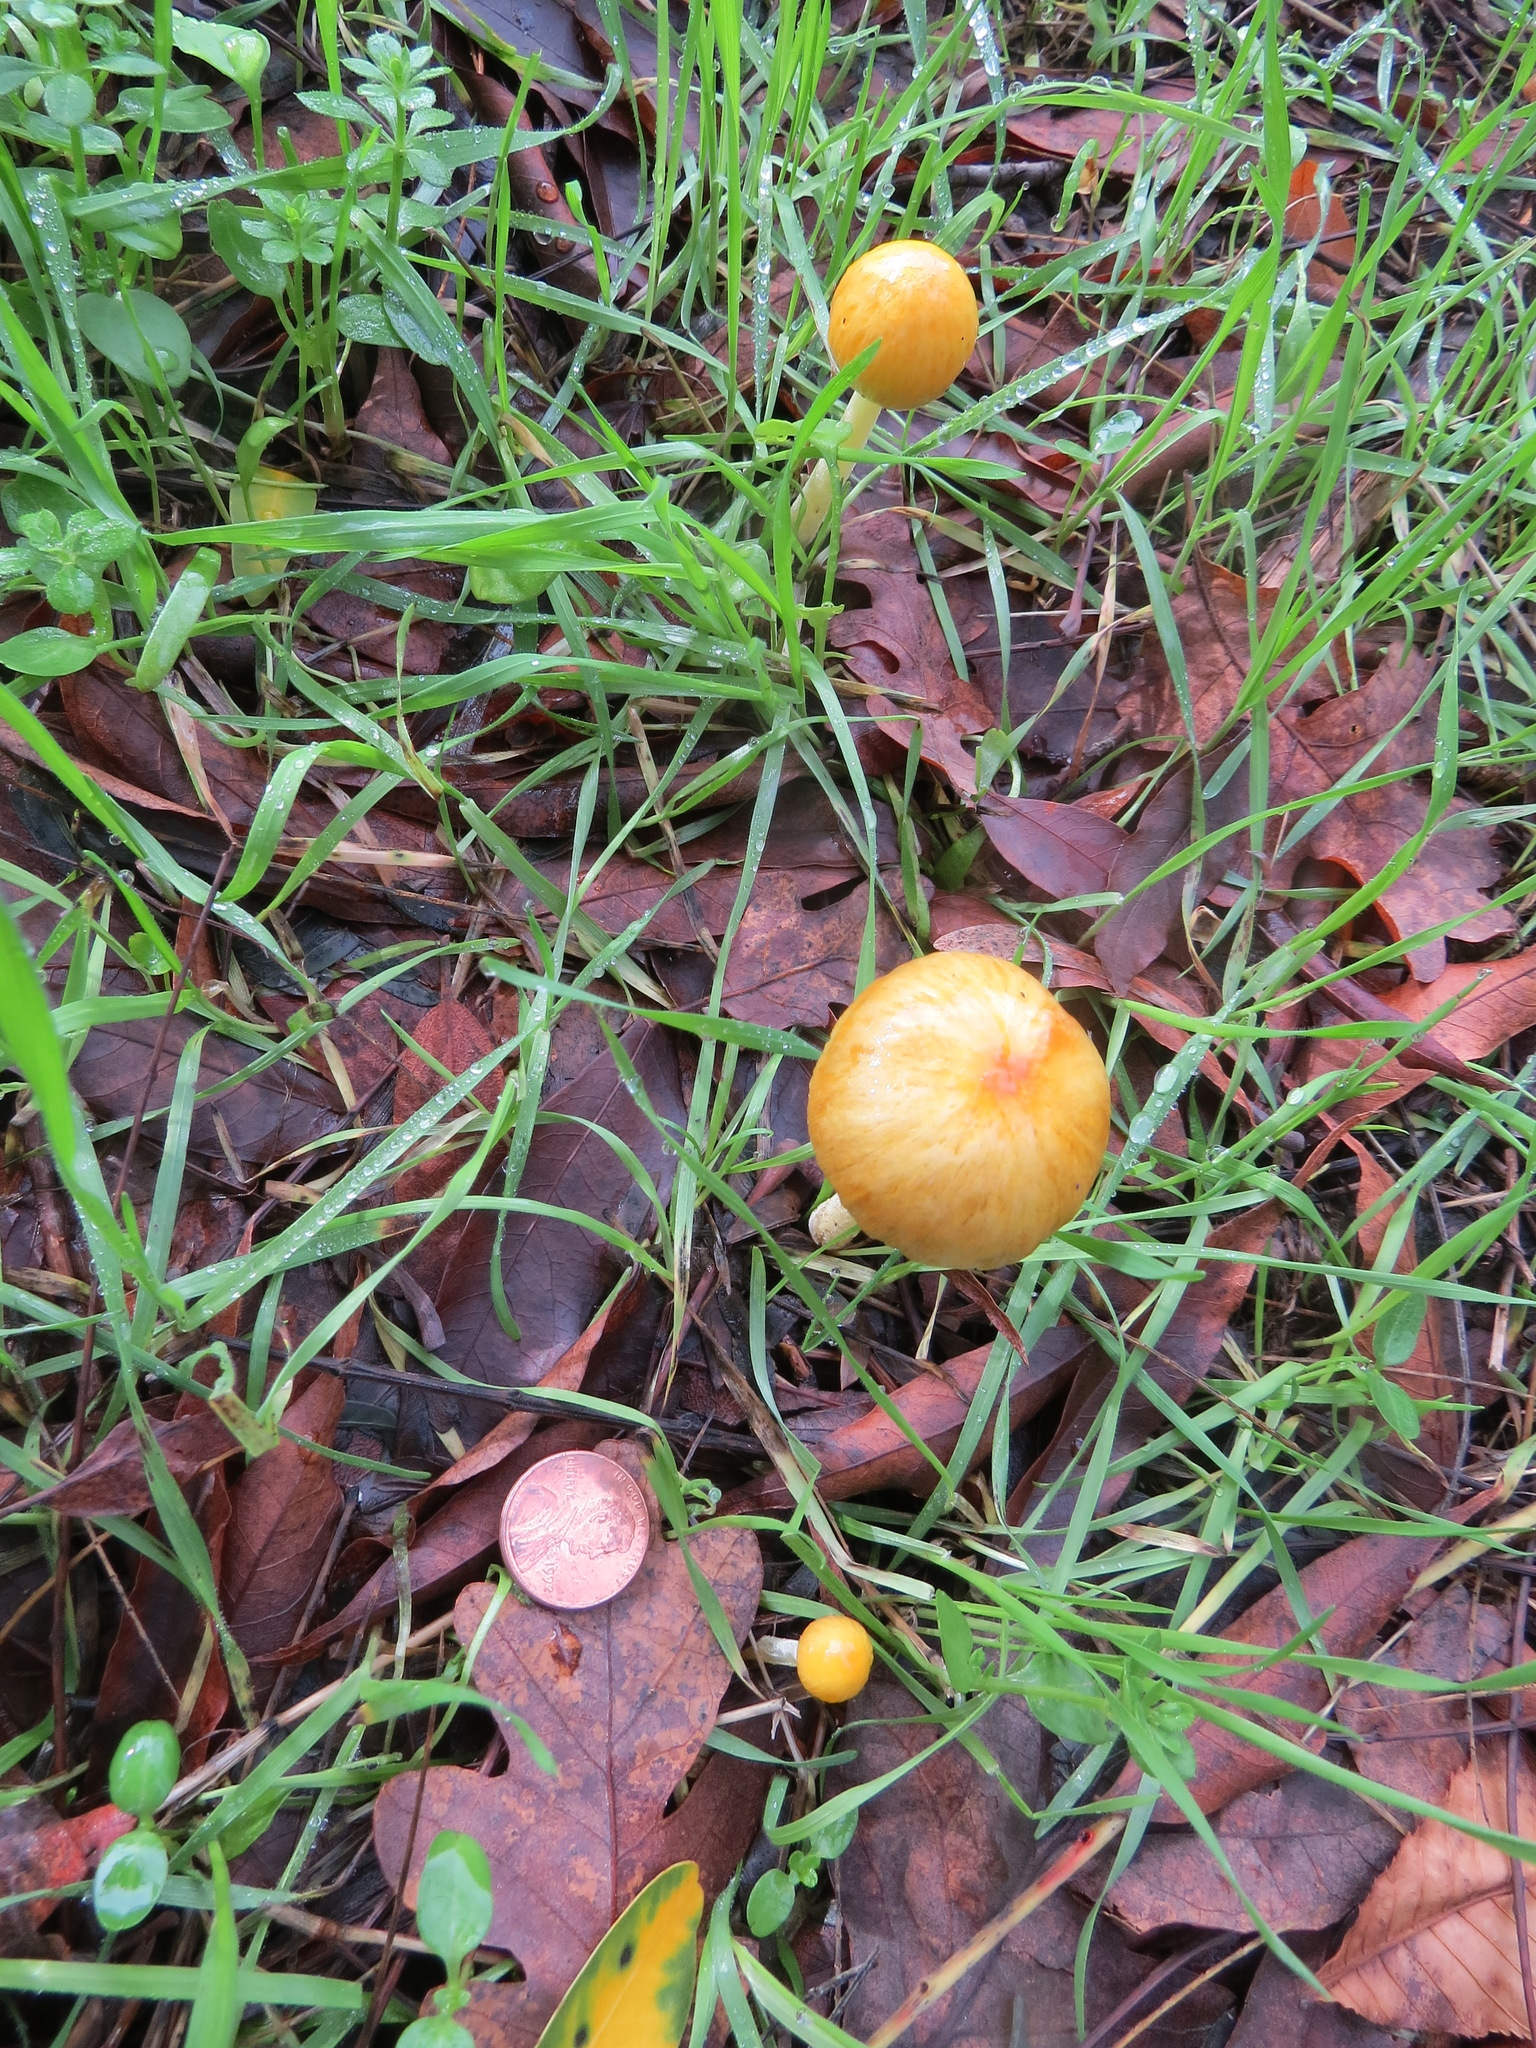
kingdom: Fungi
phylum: Basidiomycota
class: Agaricomycetes
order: Agaricales
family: Bolbitiaceae
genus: Bolbitius
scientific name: Bolbitius titubans
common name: Yellow fieldcap
